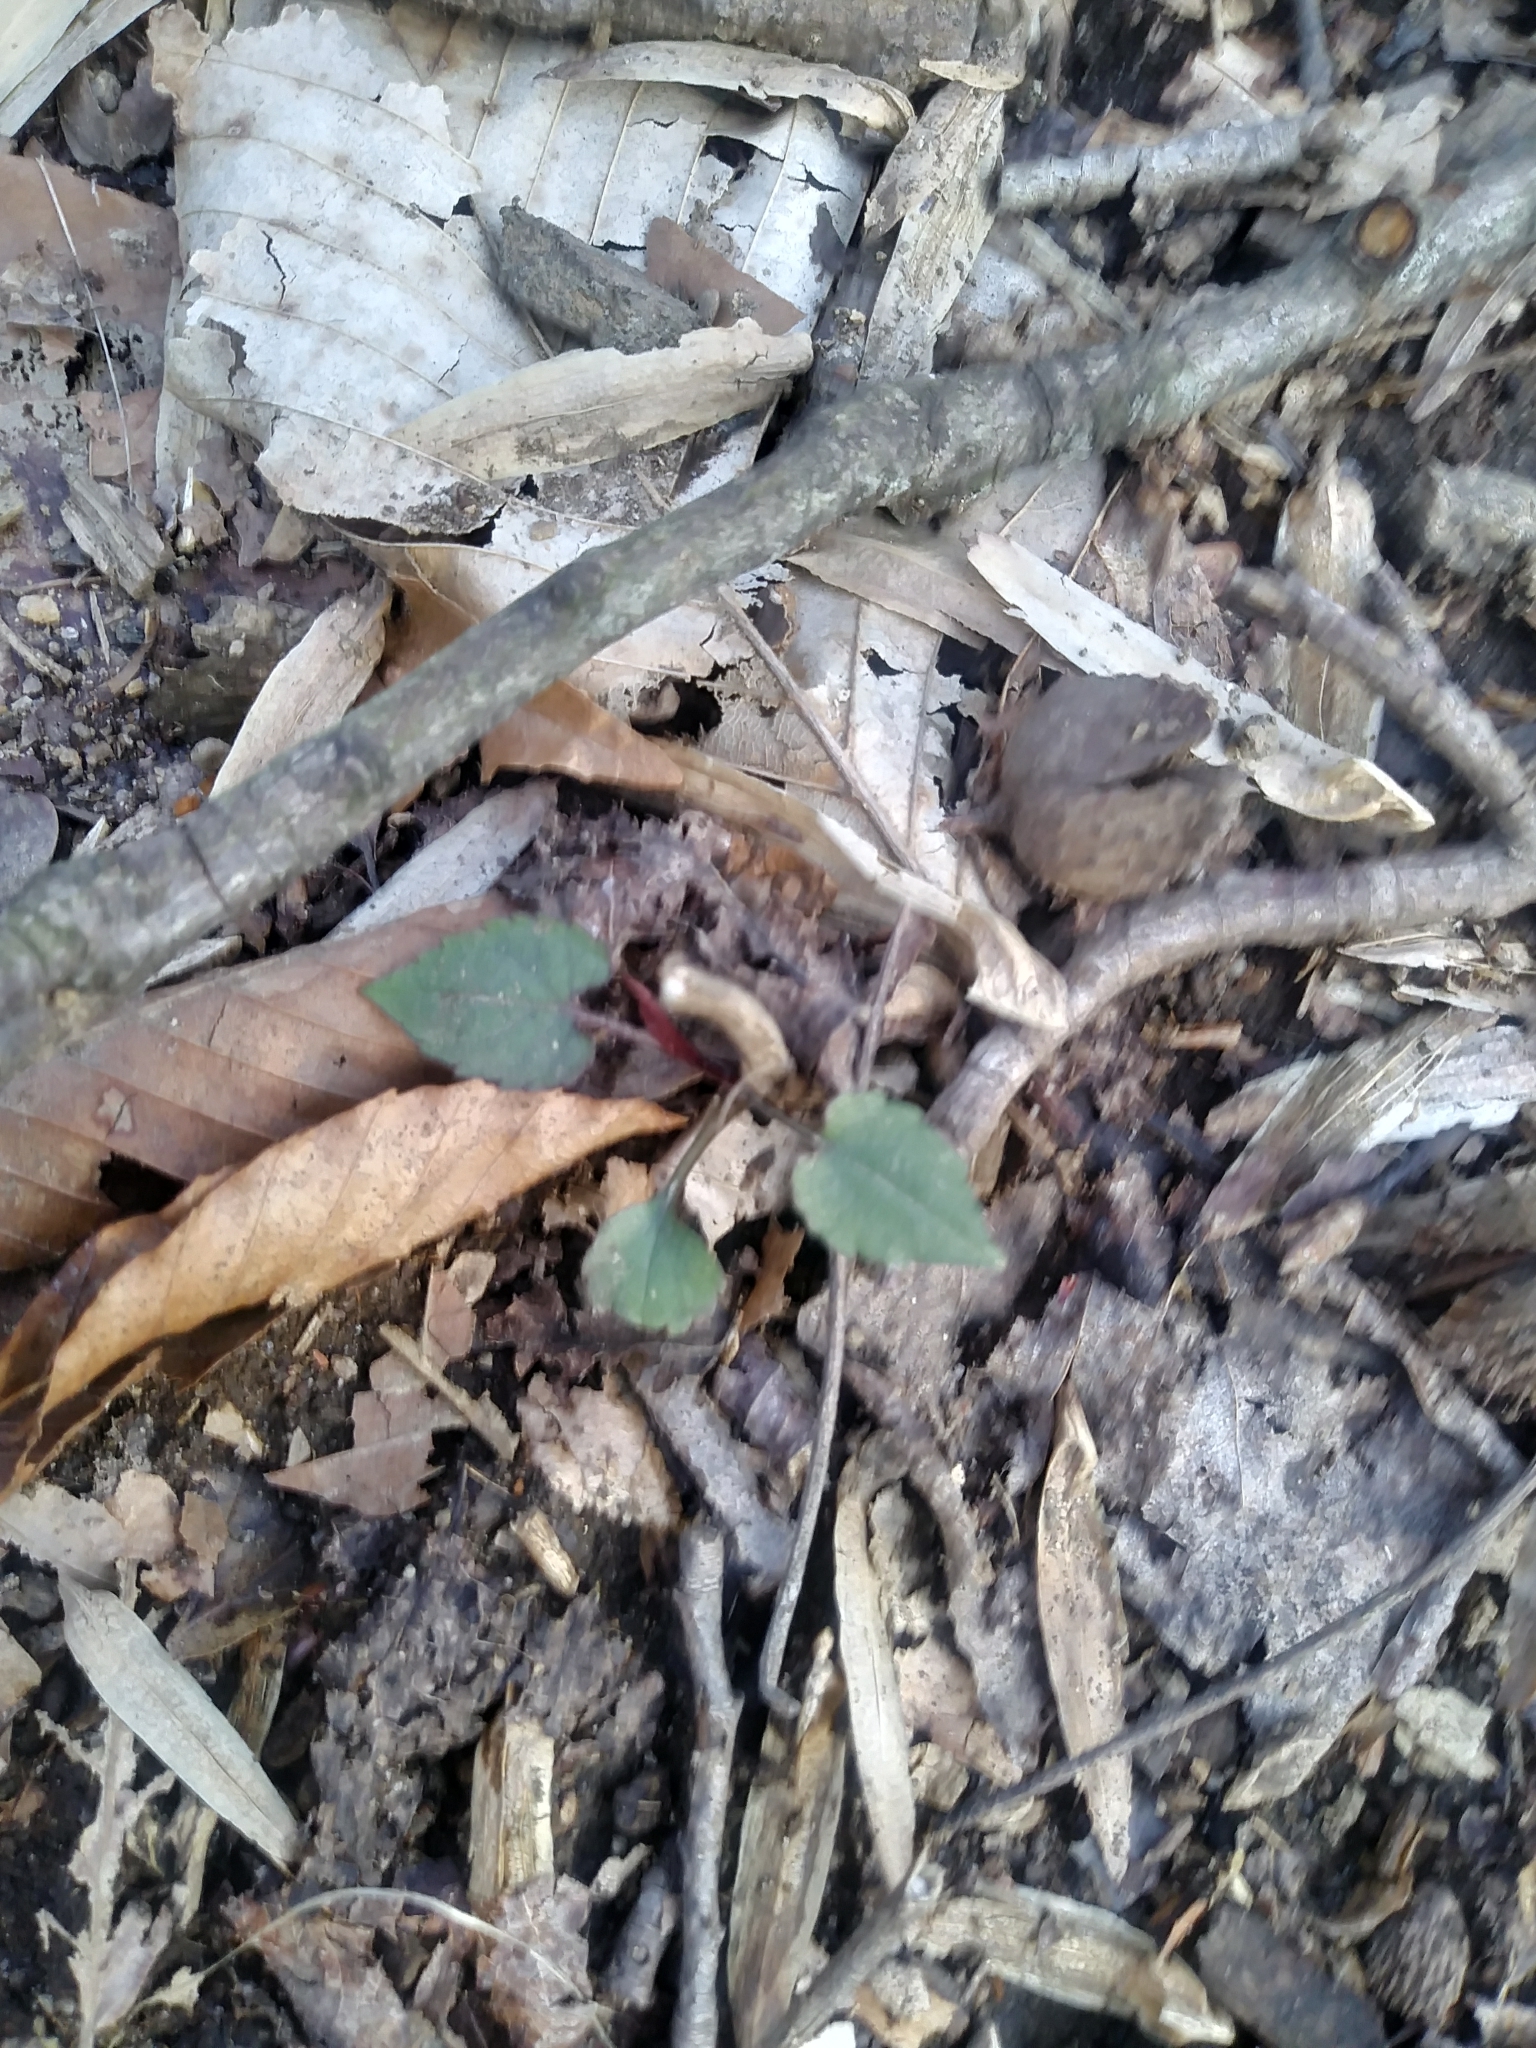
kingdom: Plantae
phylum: Tracheophyta
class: Magnoliopsida
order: Asterales
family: Asteraceae
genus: Eurybia
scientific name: Eurybia divaricata
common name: White wood aster
